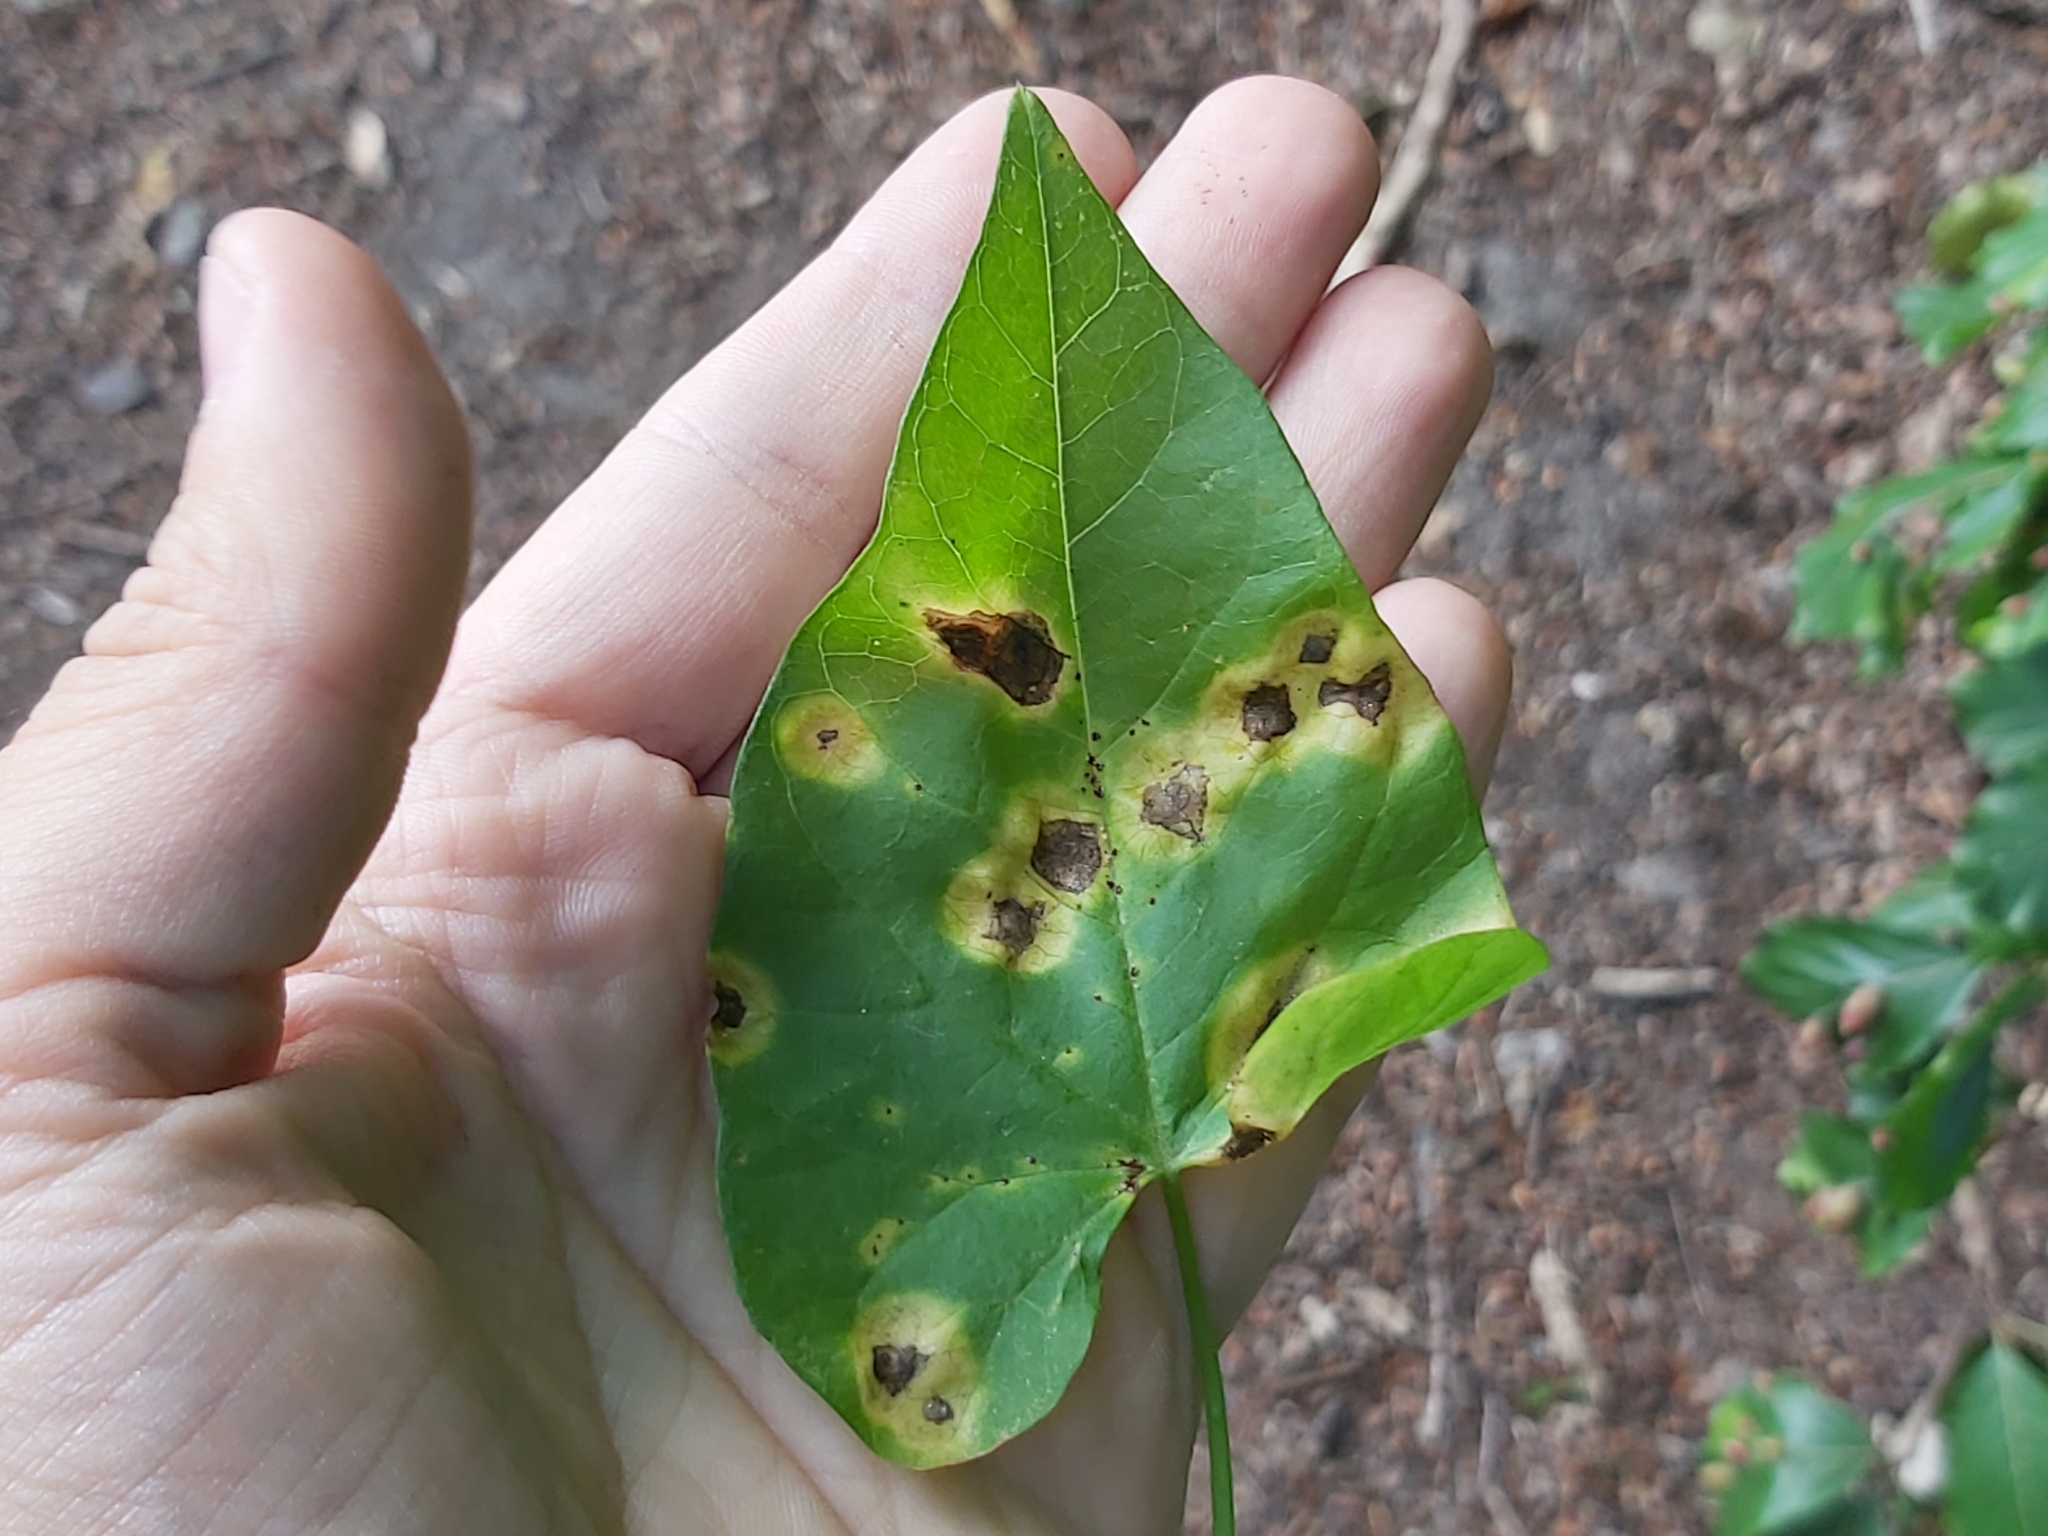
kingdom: Fungi
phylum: Basidiomycota
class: Pucciniomycetes
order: Pucciniales
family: Pucciniaceae
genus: Puccinia
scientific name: Puccinia convolvuli
